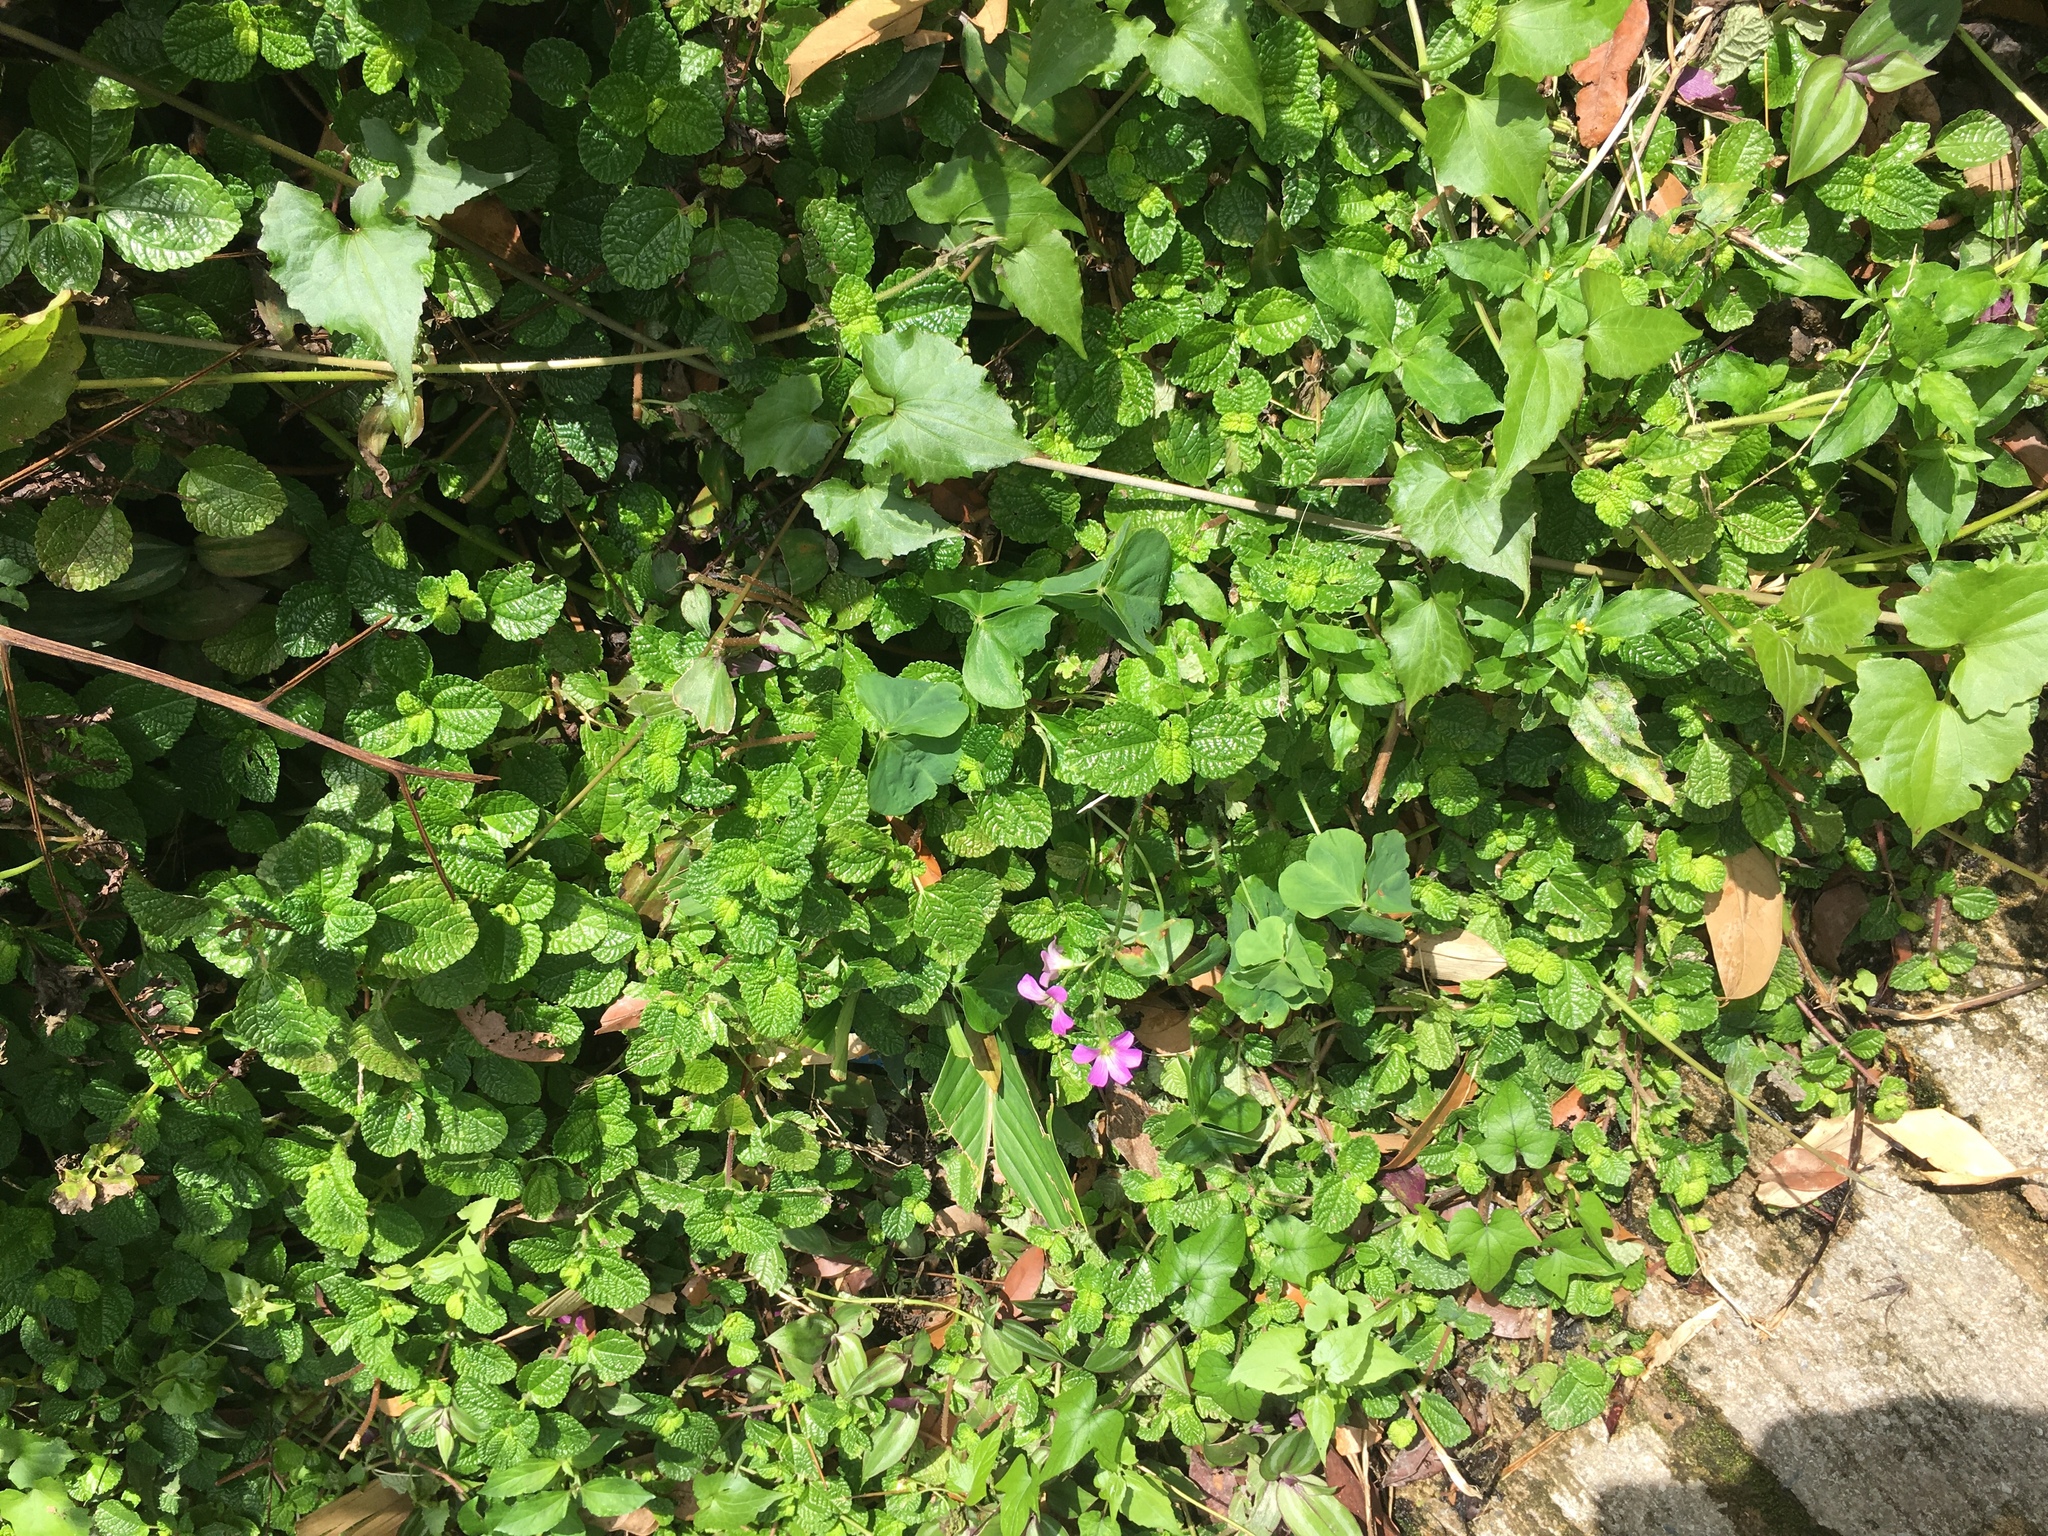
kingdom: Plantae
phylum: Tracheophyta
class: Magnoliopsida
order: Oxalidales
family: Oxalidaceae
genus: Oxalis
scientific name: Oxalis debilis
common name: Large-flowered pink-sorrel
